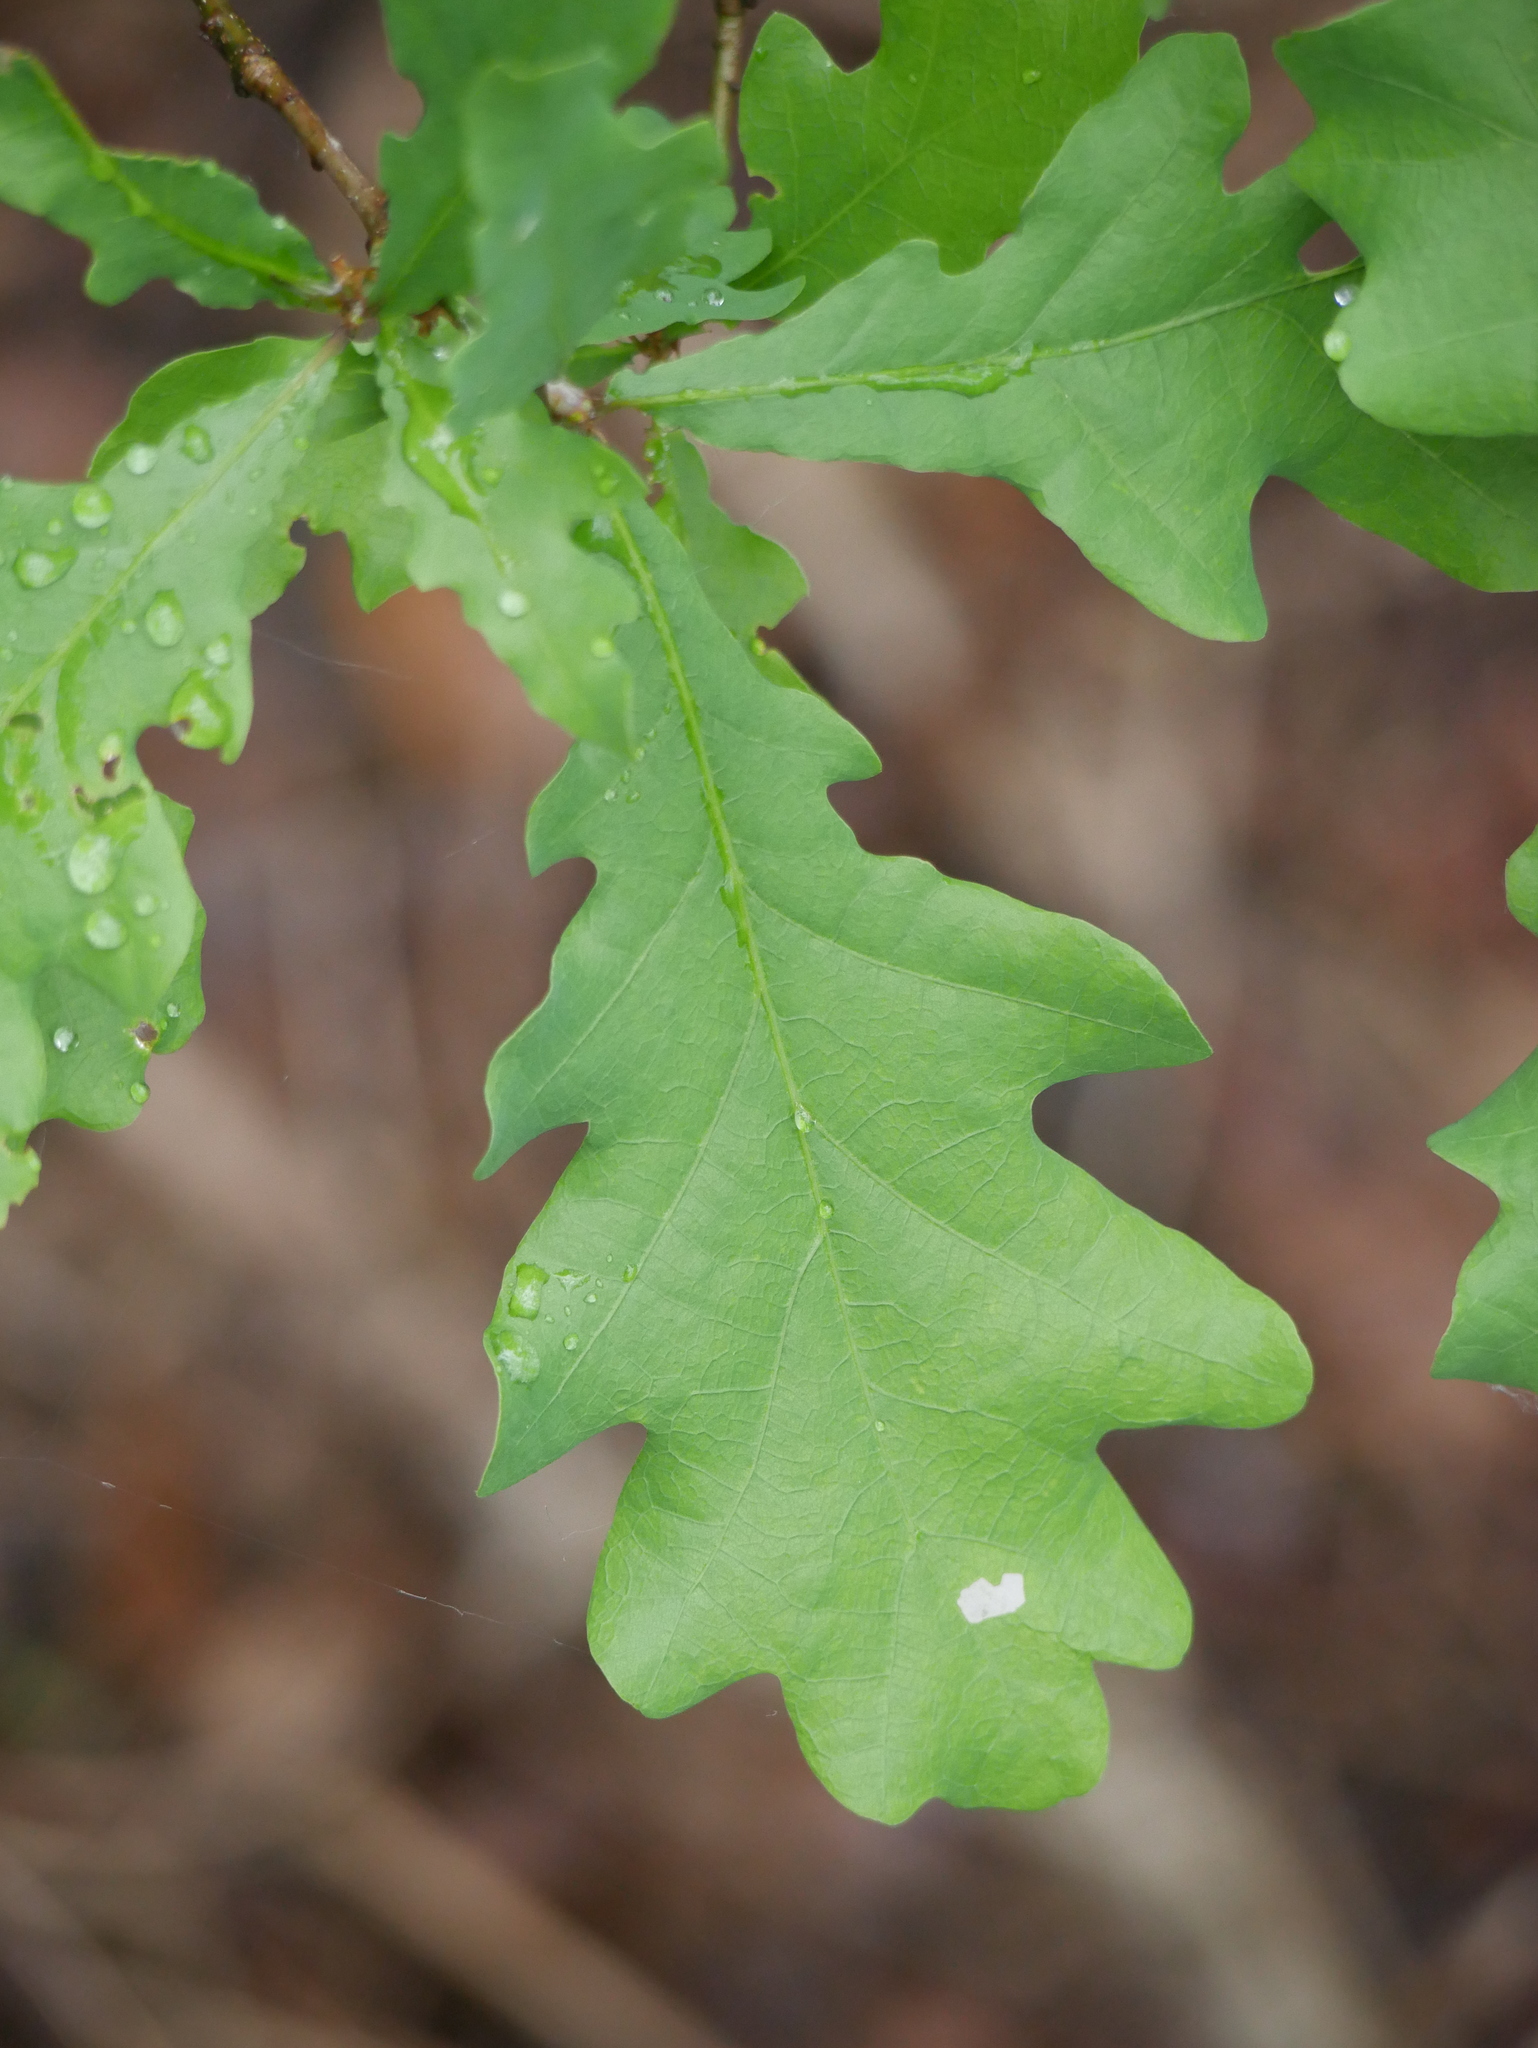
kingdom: Plantae
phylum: Tracheophyta
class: Magnoliopsida
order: Fagales
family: Fagaceae
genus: Quercus
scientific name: Quercus robur
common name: Pedunculate oak
